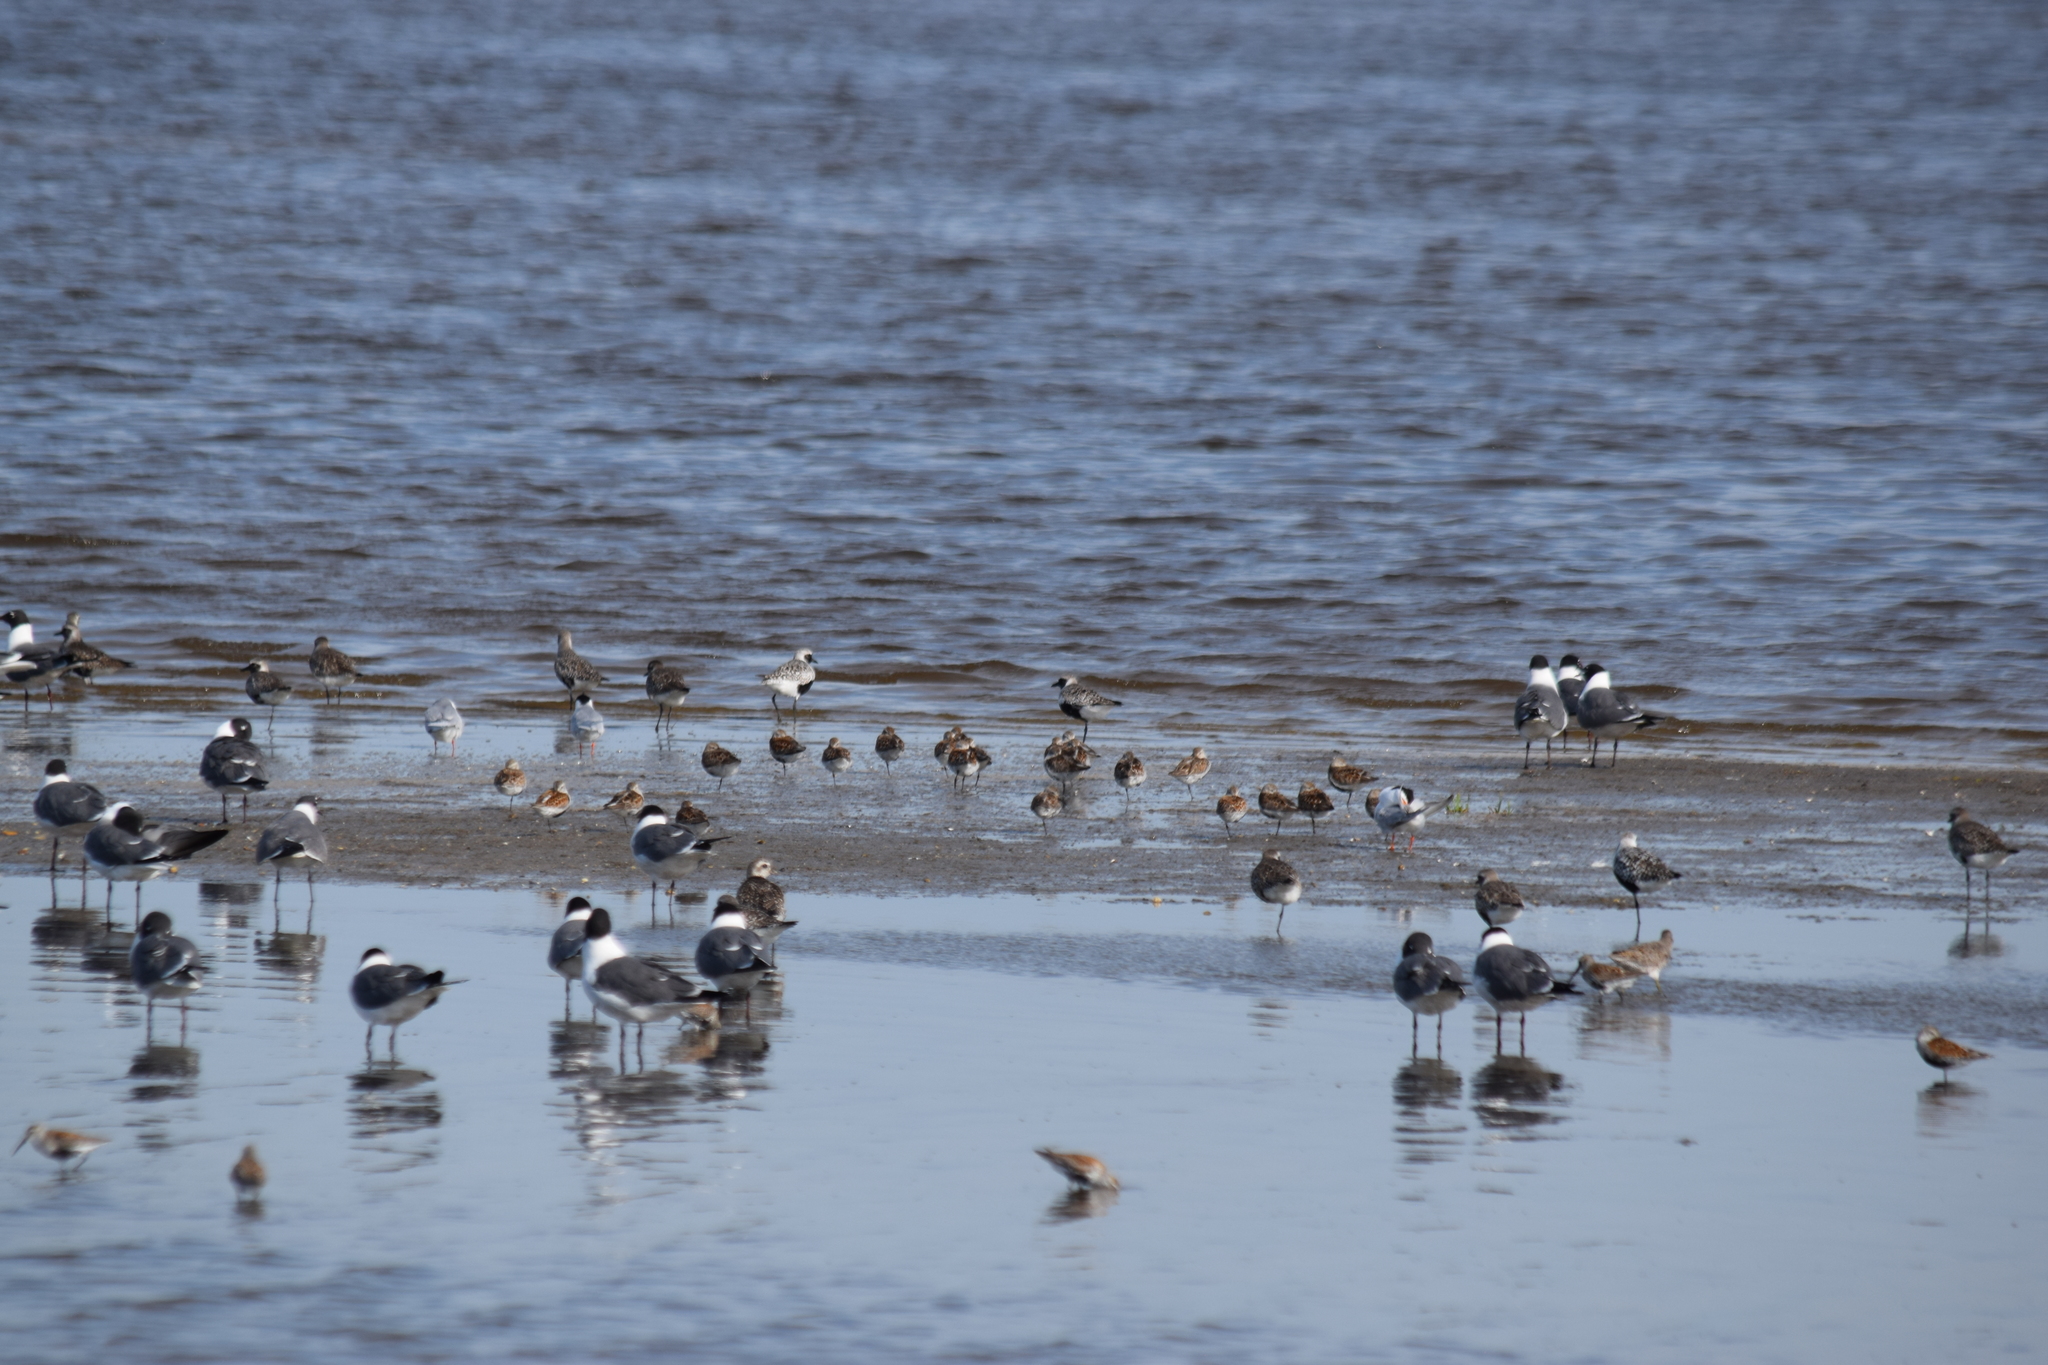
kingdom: Animalia
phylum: Chordata
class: Aves
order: Charadriiformes
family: Scolopacidae
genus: Calidris
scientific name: Calidris alpina
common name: Dunlin
